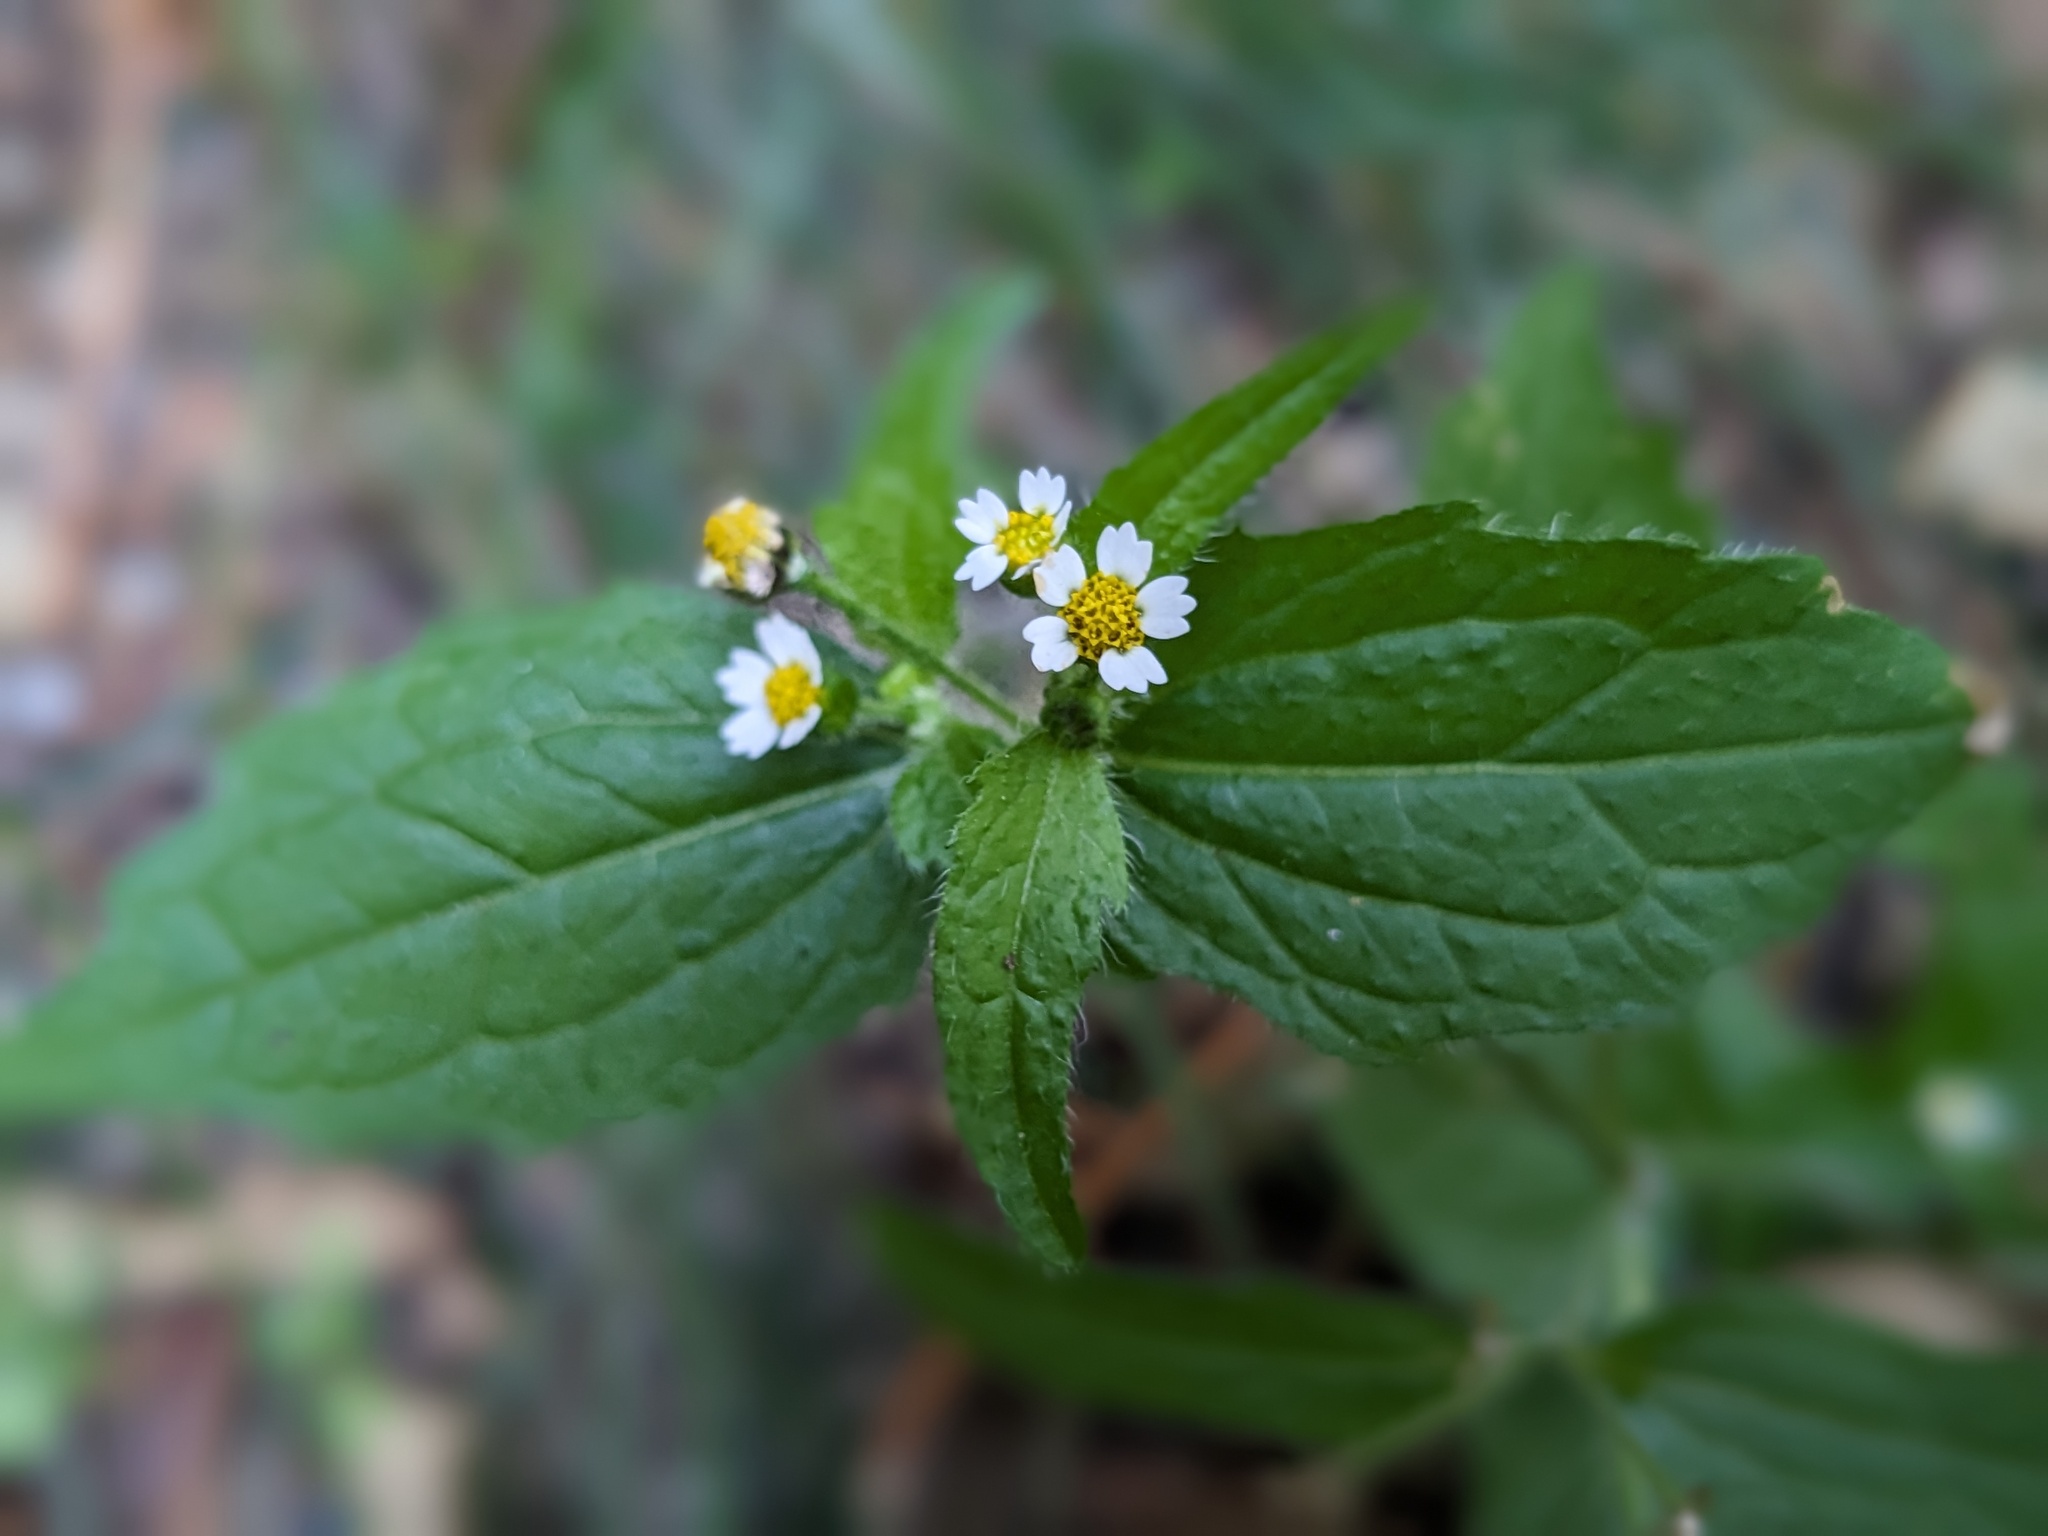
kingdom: Plantae
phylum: Tracheophyta
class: Magnoliopsida
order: Asterales
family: Asteraceae
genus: Galinsoga
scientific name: Galinsoga quadriradiata
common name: Shaggy soldier
